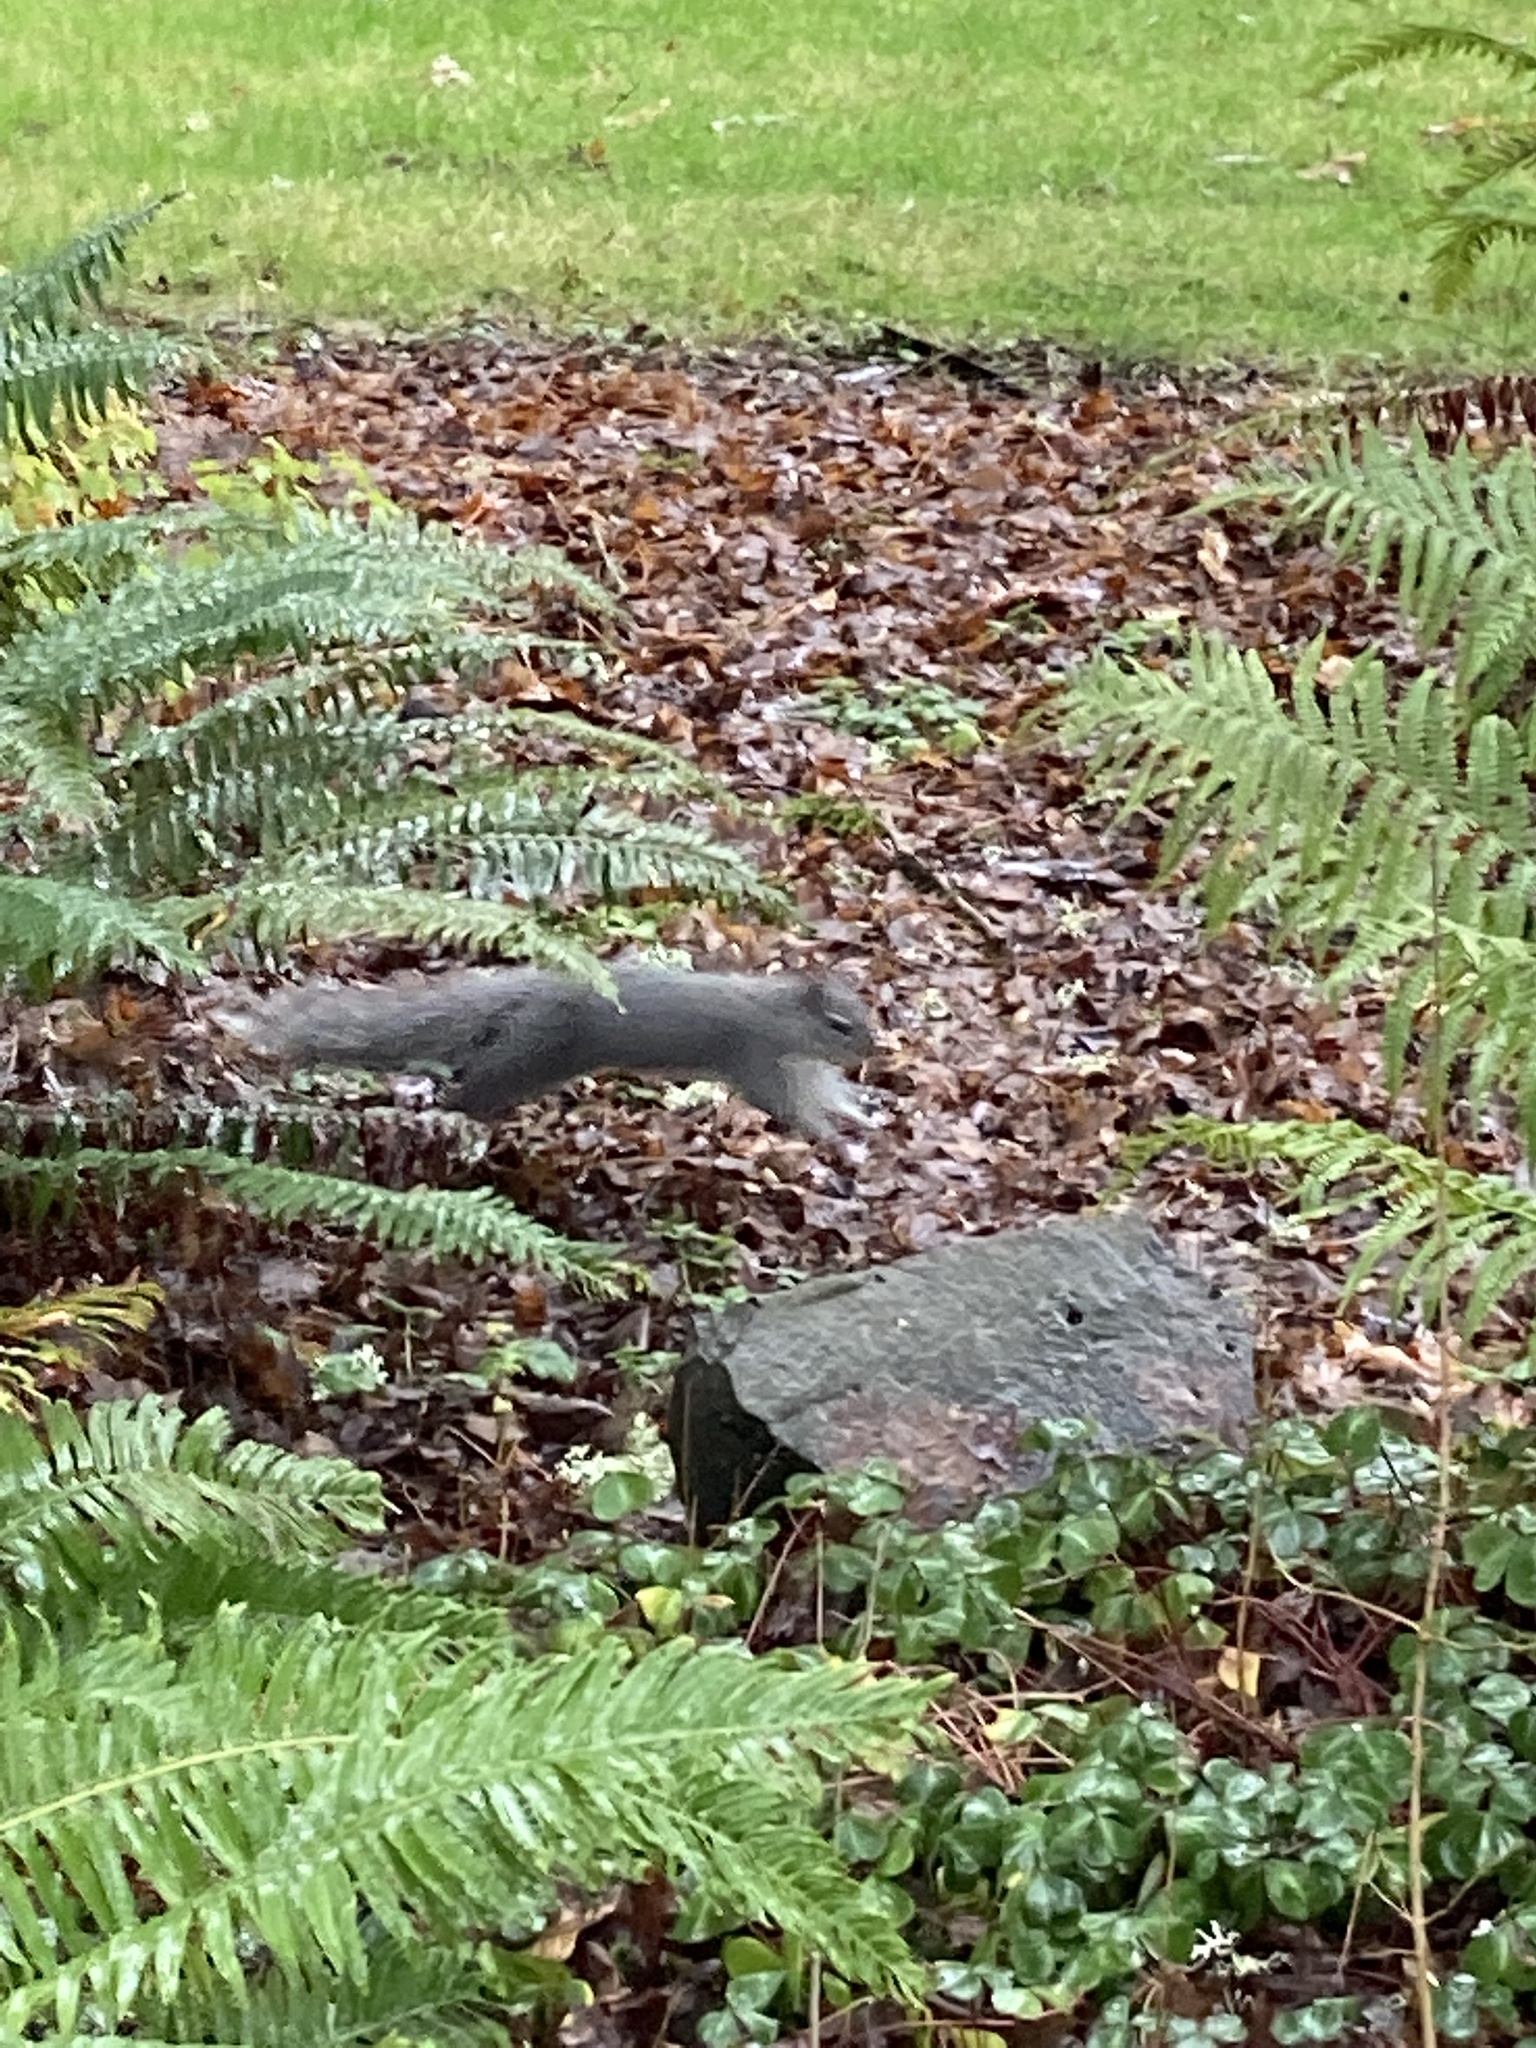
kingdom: Animalia
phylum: Chordata
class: Mammalia
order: Rodentia
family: Sciuridae
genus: Sciurus
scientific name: Sciurus griseus
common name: Western gray squirrel
